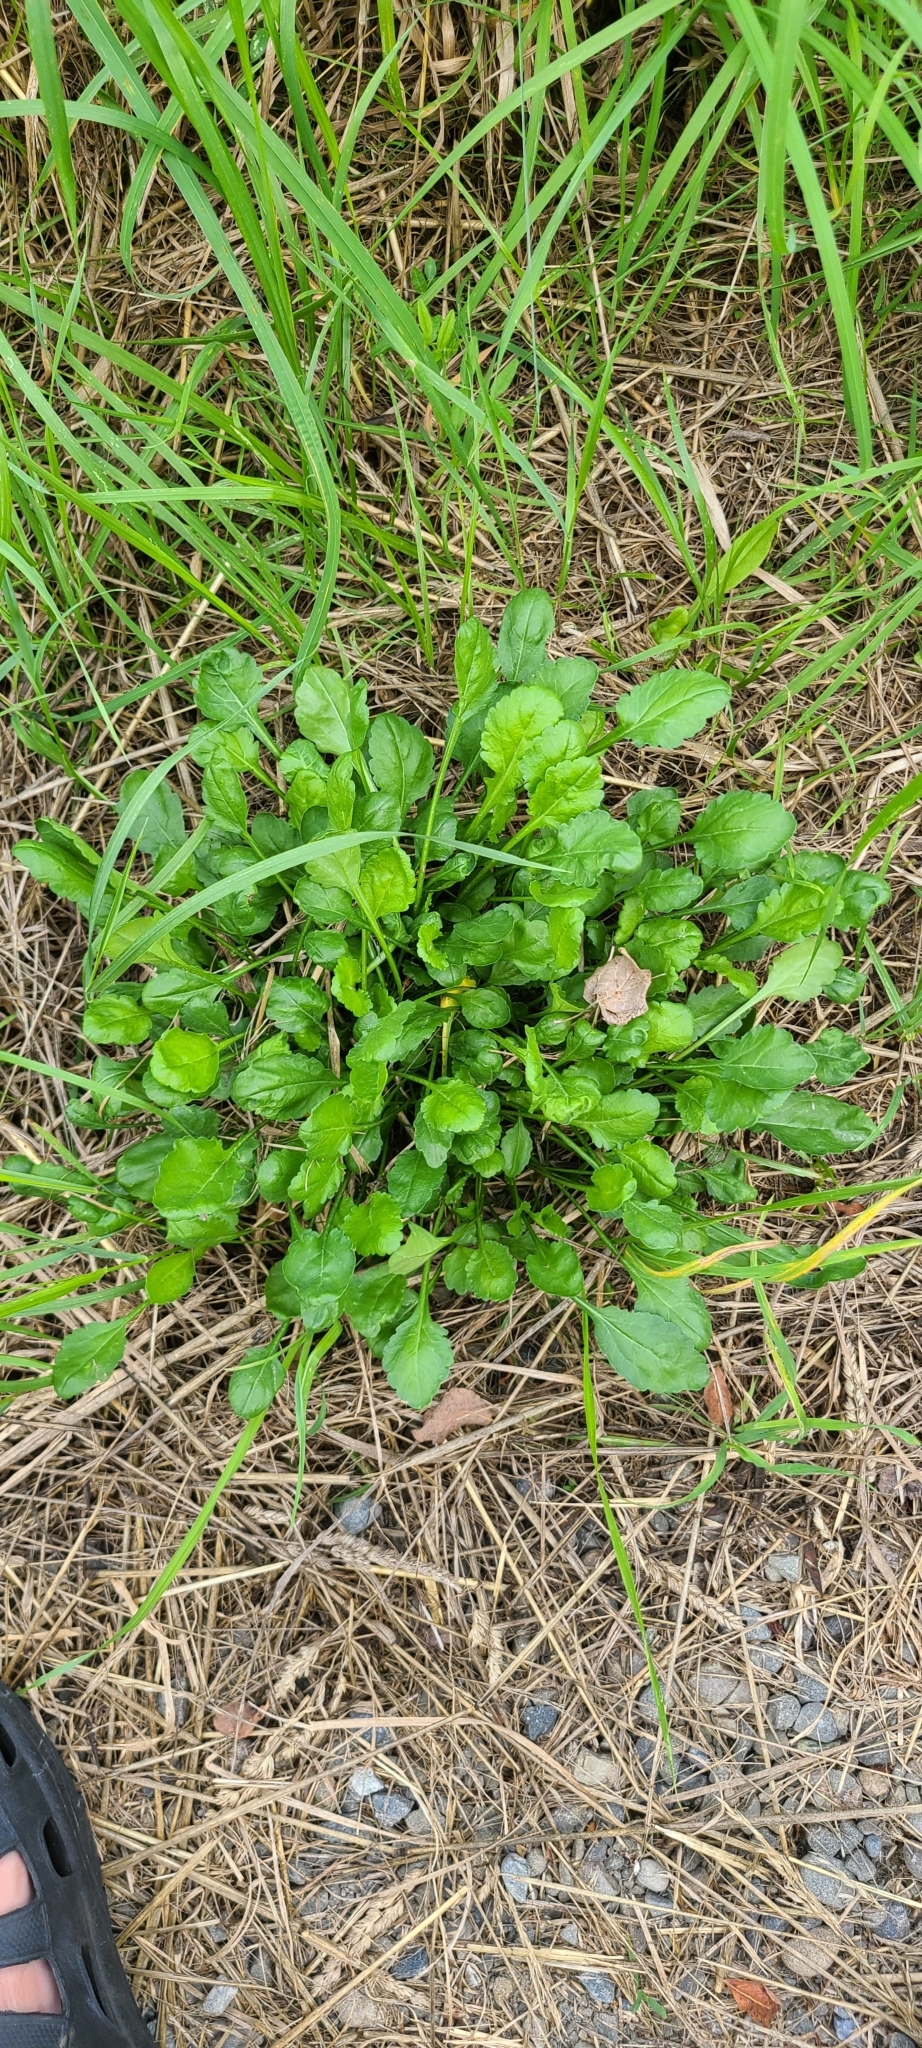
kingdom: Plantae
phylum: Tracheophyta
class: Magnoliopsida
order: Asterales
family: Asteraceae
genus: Leucanthemum
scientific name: Leucanthemum vulgare
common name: Oxeye daisy
